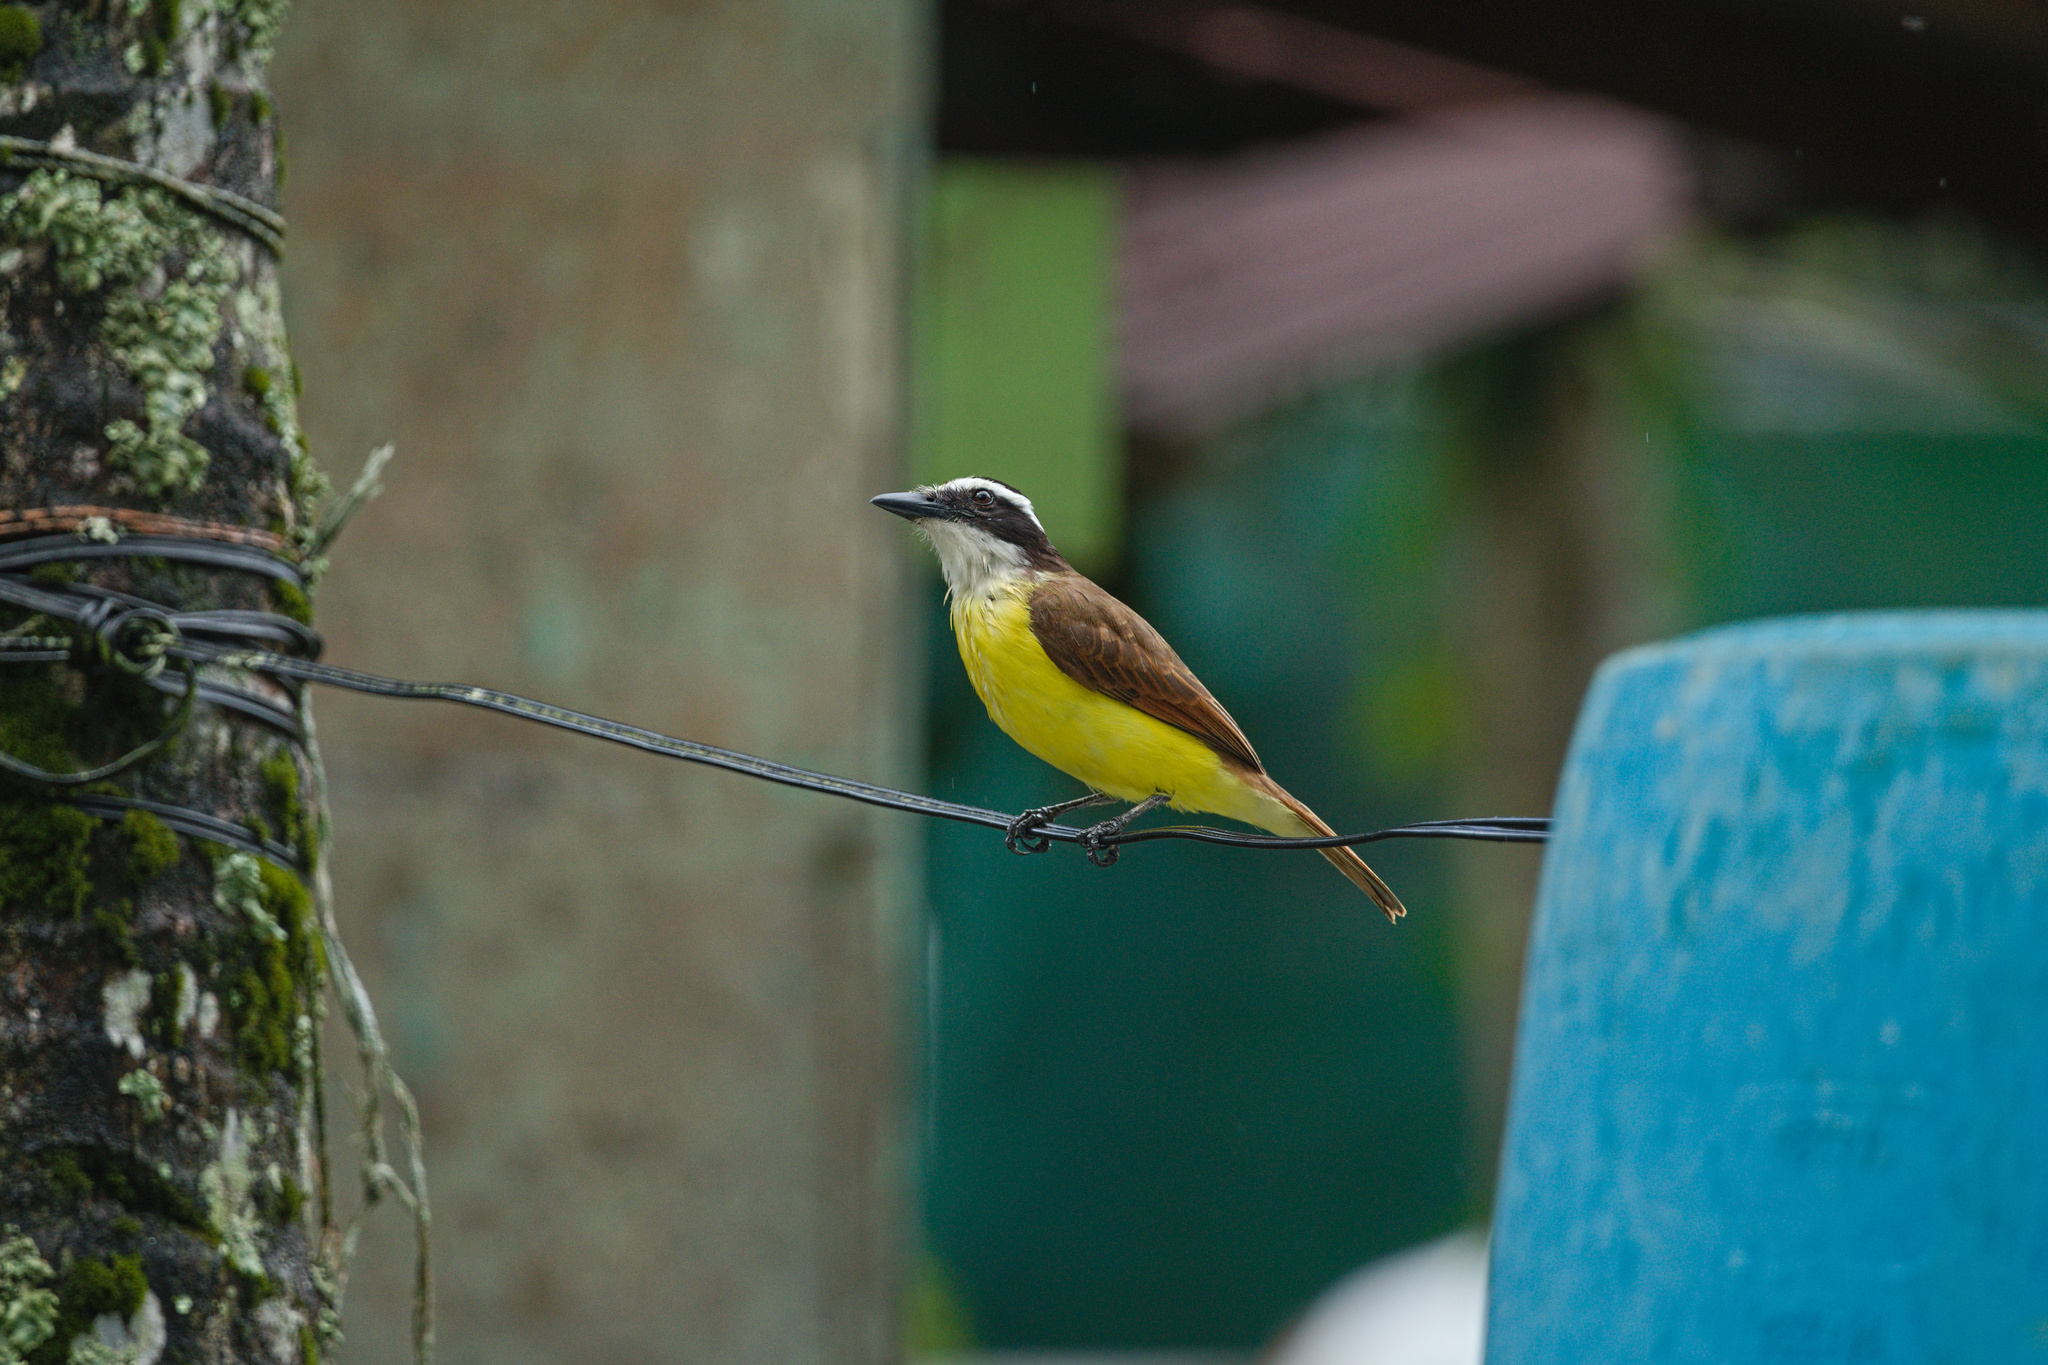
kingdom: Animalia
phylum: Chordata
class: Aves
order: Passeriformes
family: Tyrannidae
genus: Pitangus
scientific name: Pitangus sulphuratus
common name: Great kiskadee
